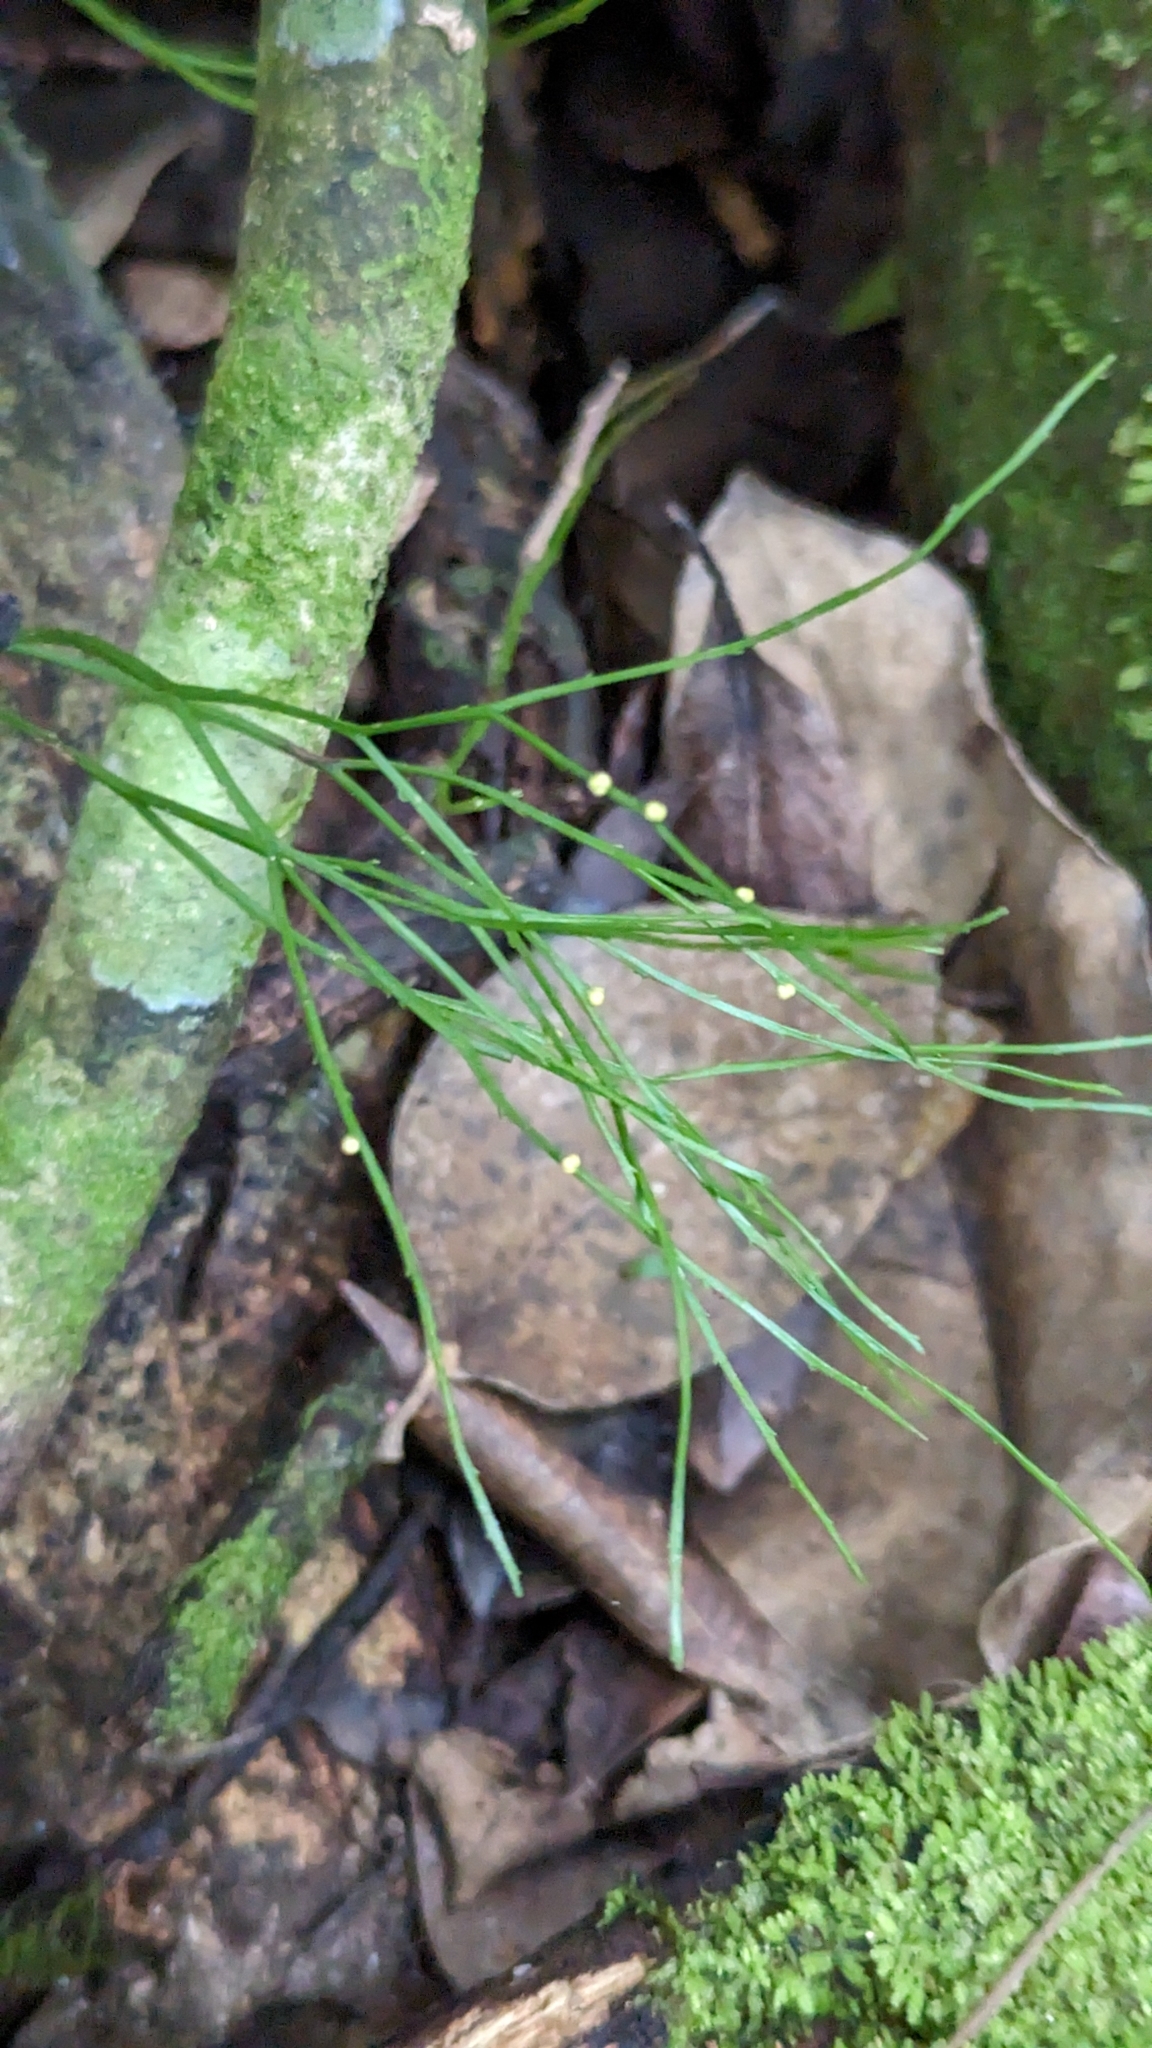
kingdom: Plantae
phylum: Tracheophyta
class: Polypodiopsida
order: Psilotales
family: Psilotaceae
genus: Psilotum
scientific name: Psilotum nudum
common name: Skeleton fork fern
